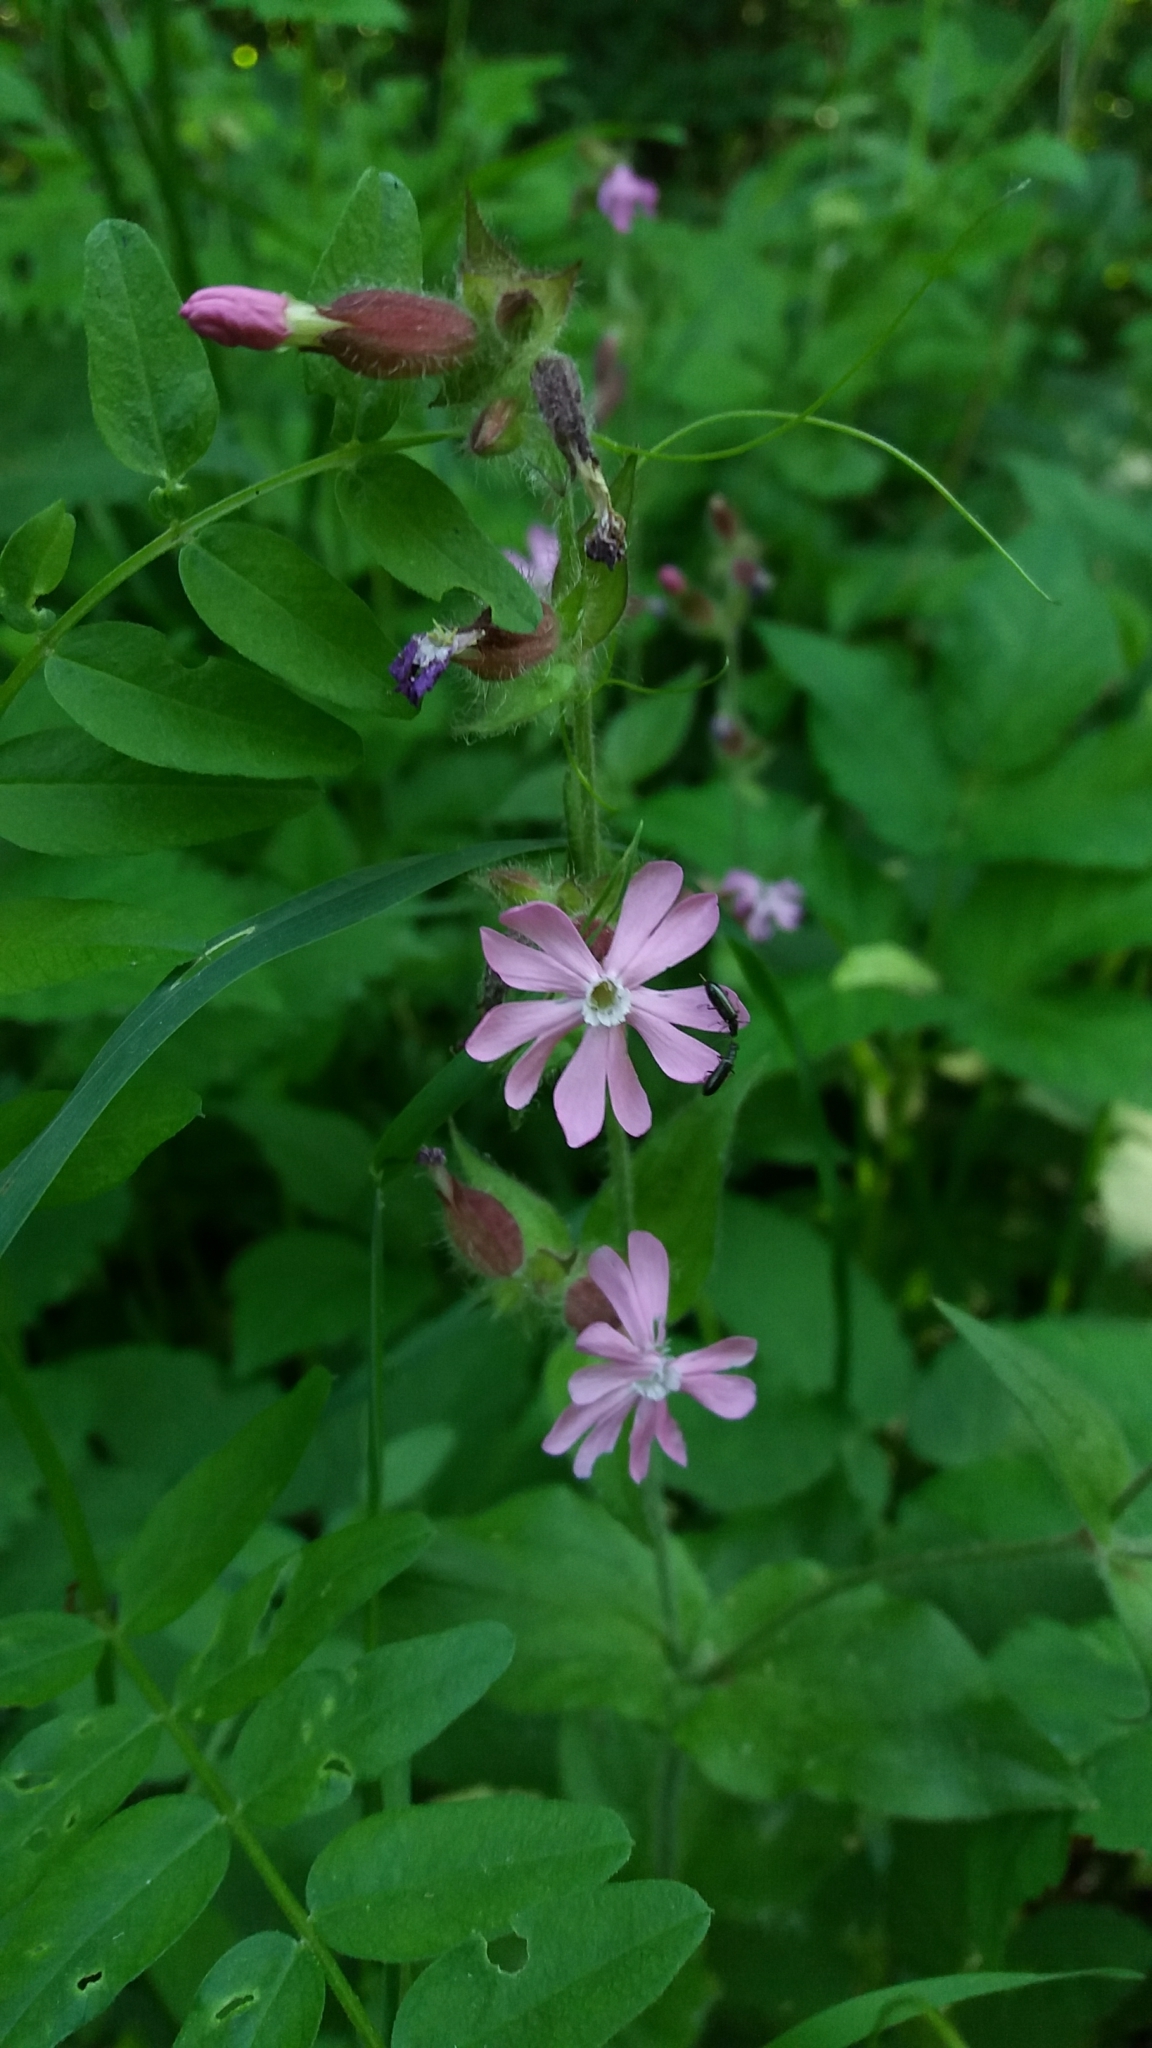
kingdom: Plantae
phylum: Tracheophyta
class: Magnoliopsida
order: Caryophyllales
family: Caryophyllaceae
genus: Silene
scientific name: Silene dioica
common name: Red campion
